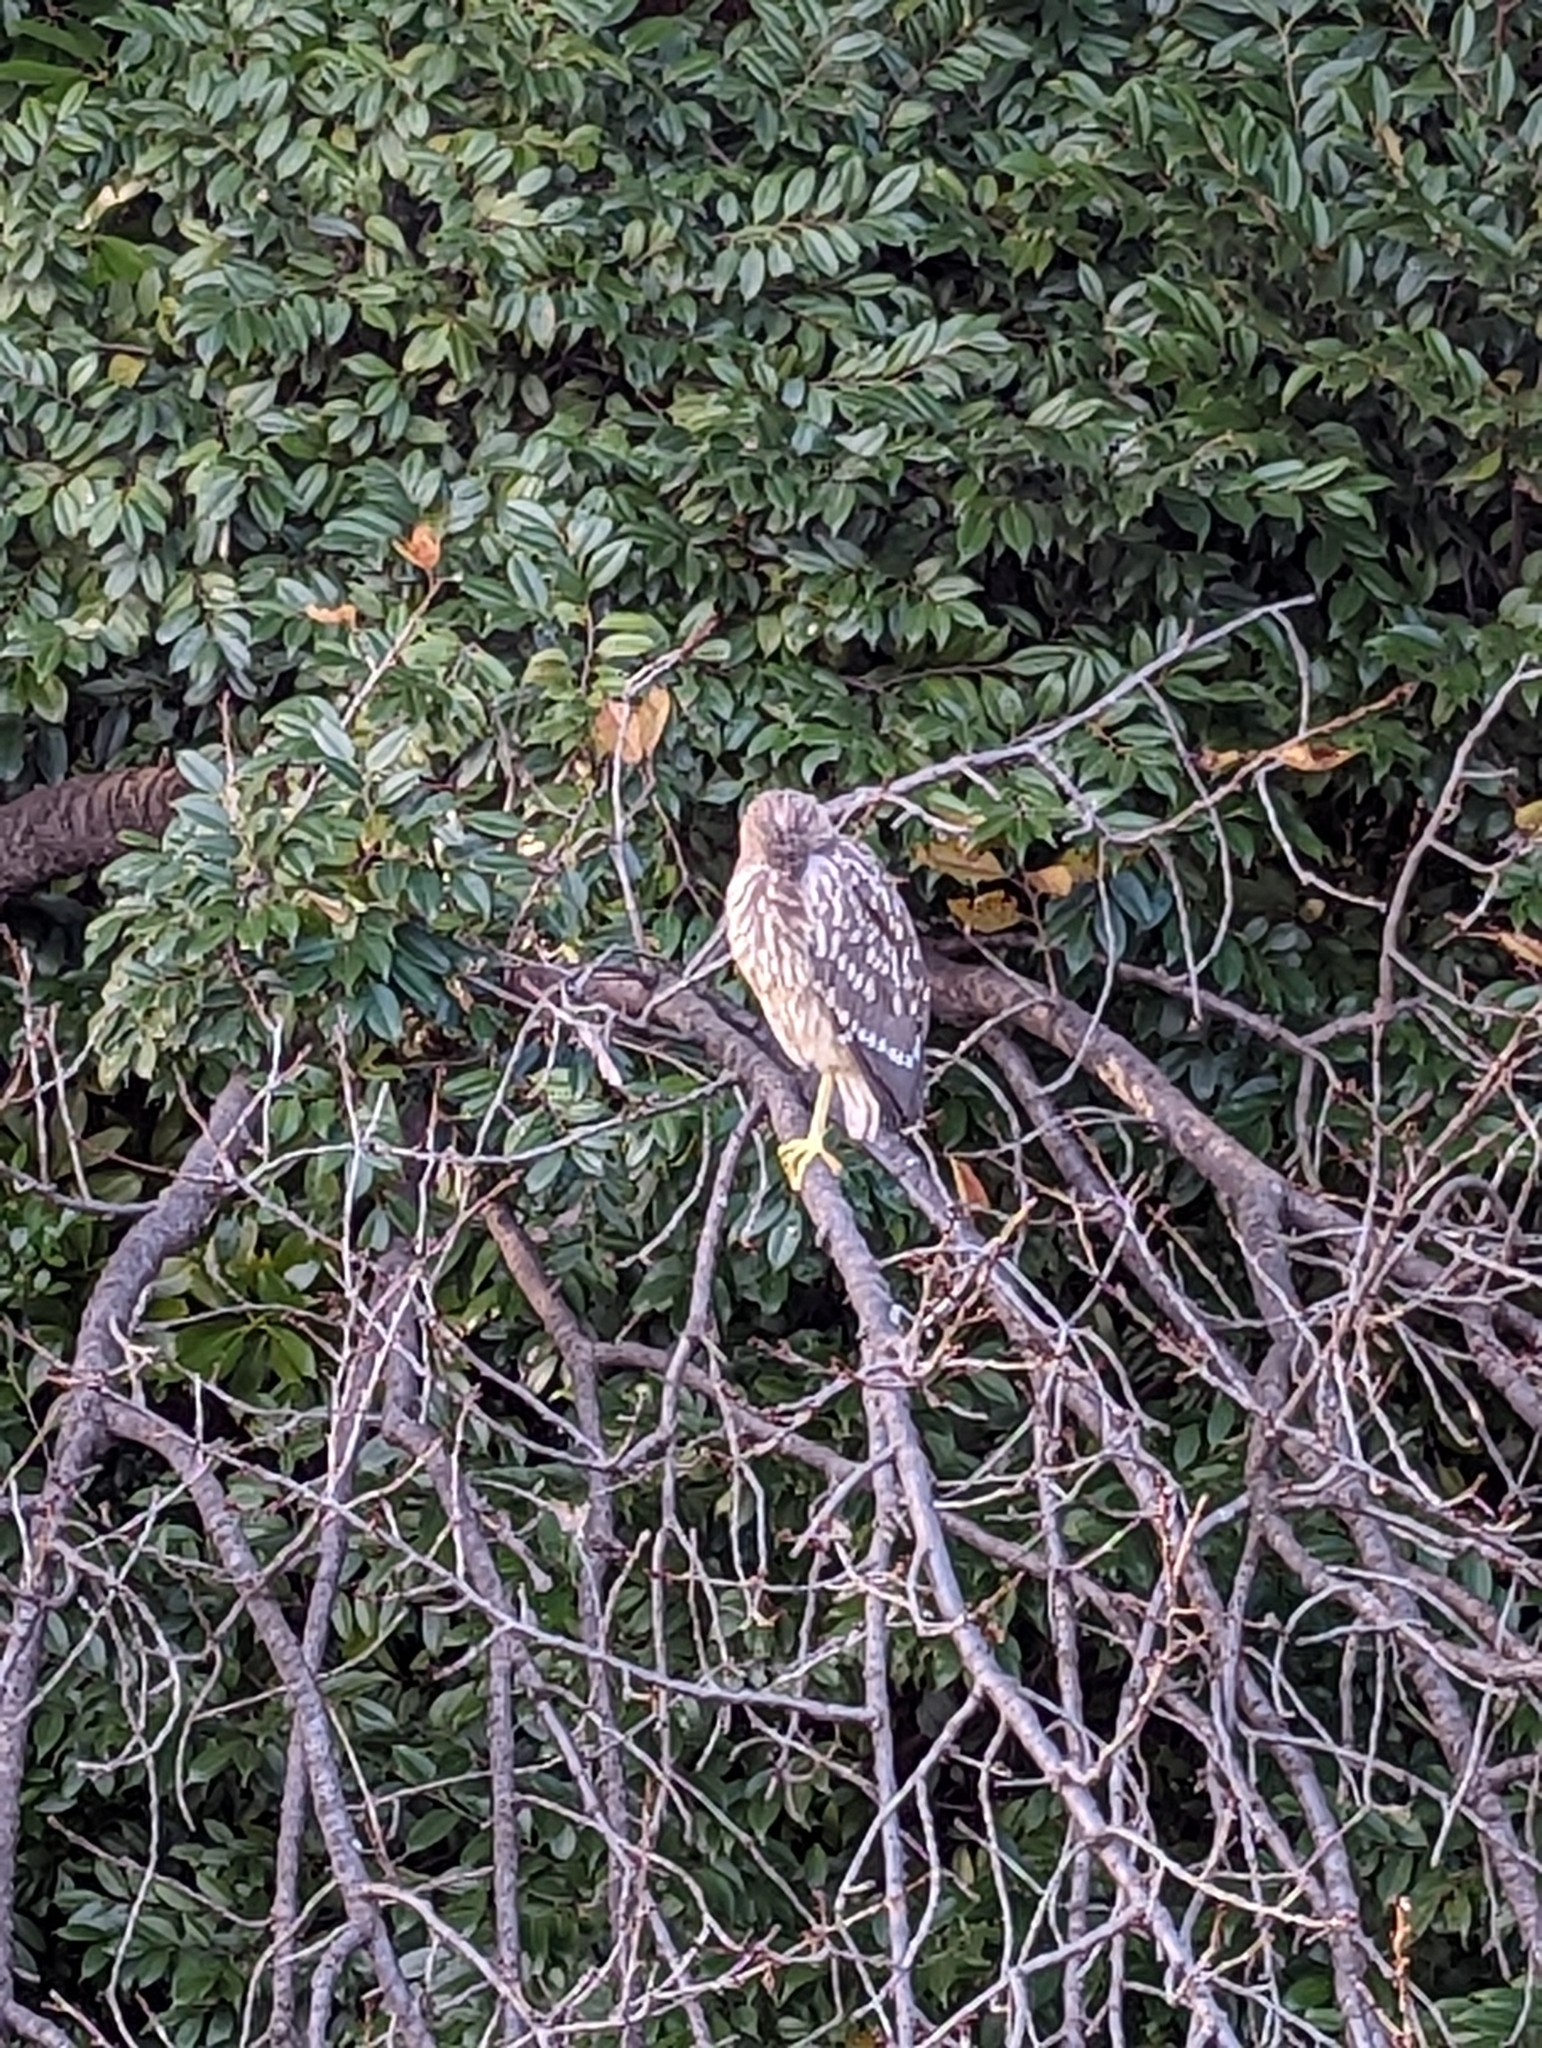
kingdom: Animalia
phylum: Chordata
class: Aves
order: Pelecaniformes
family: Ardeidae
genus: Nycticorax
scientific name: Nycticorax nycticorax
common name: Black-crowned night heron
